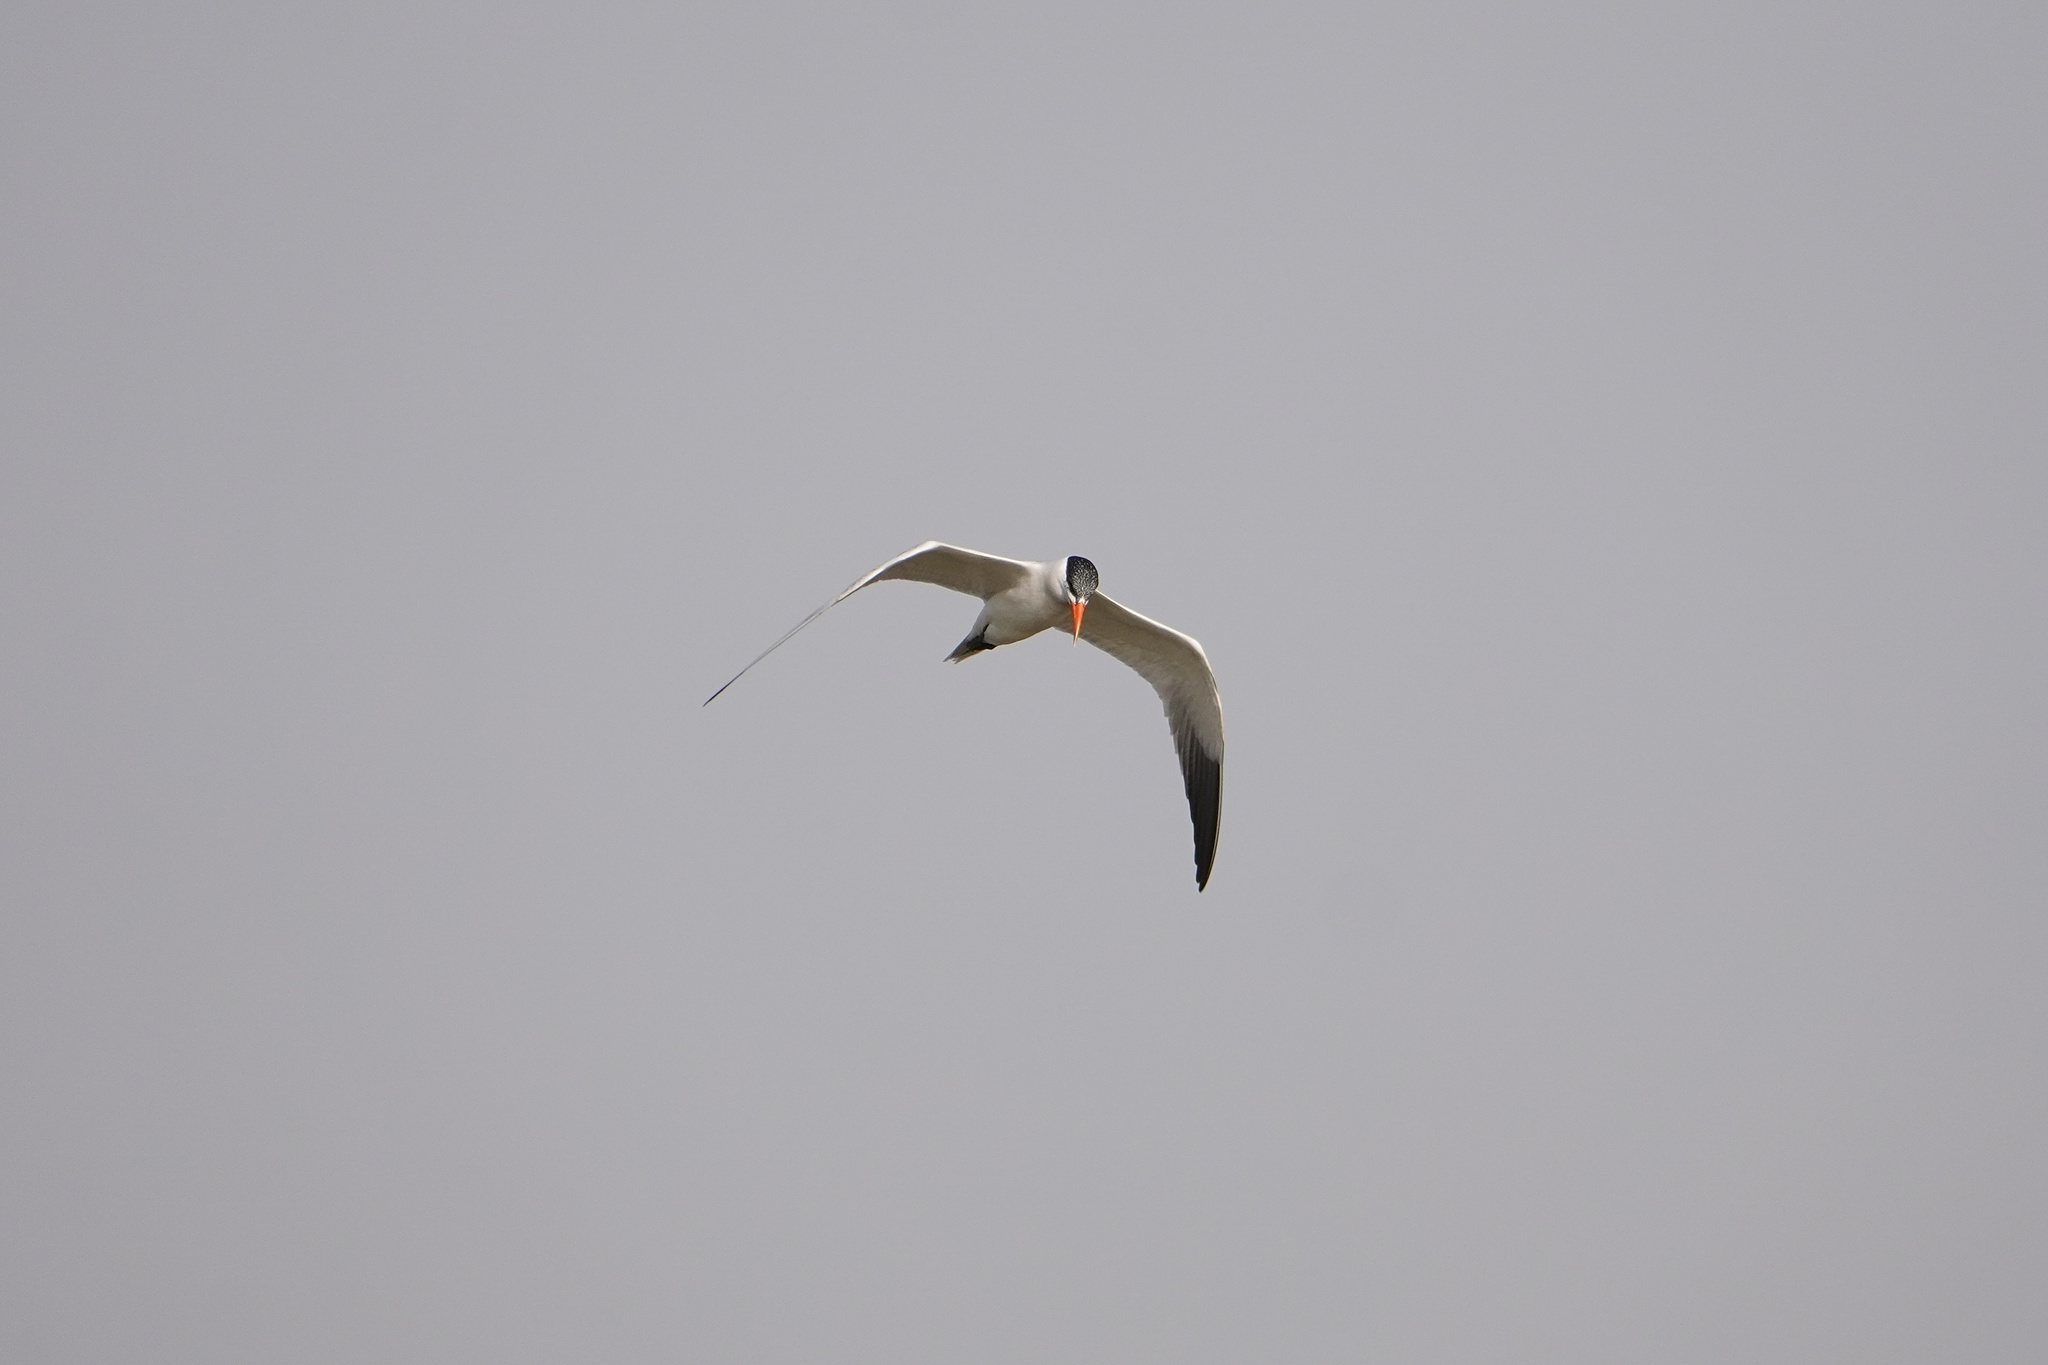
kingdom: Animalia
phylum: Chordata
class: Aves
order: Charadriiformes
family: Laridae
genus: Hydroprogne
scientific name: Hydroprogne caspia
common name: Caspian tern
